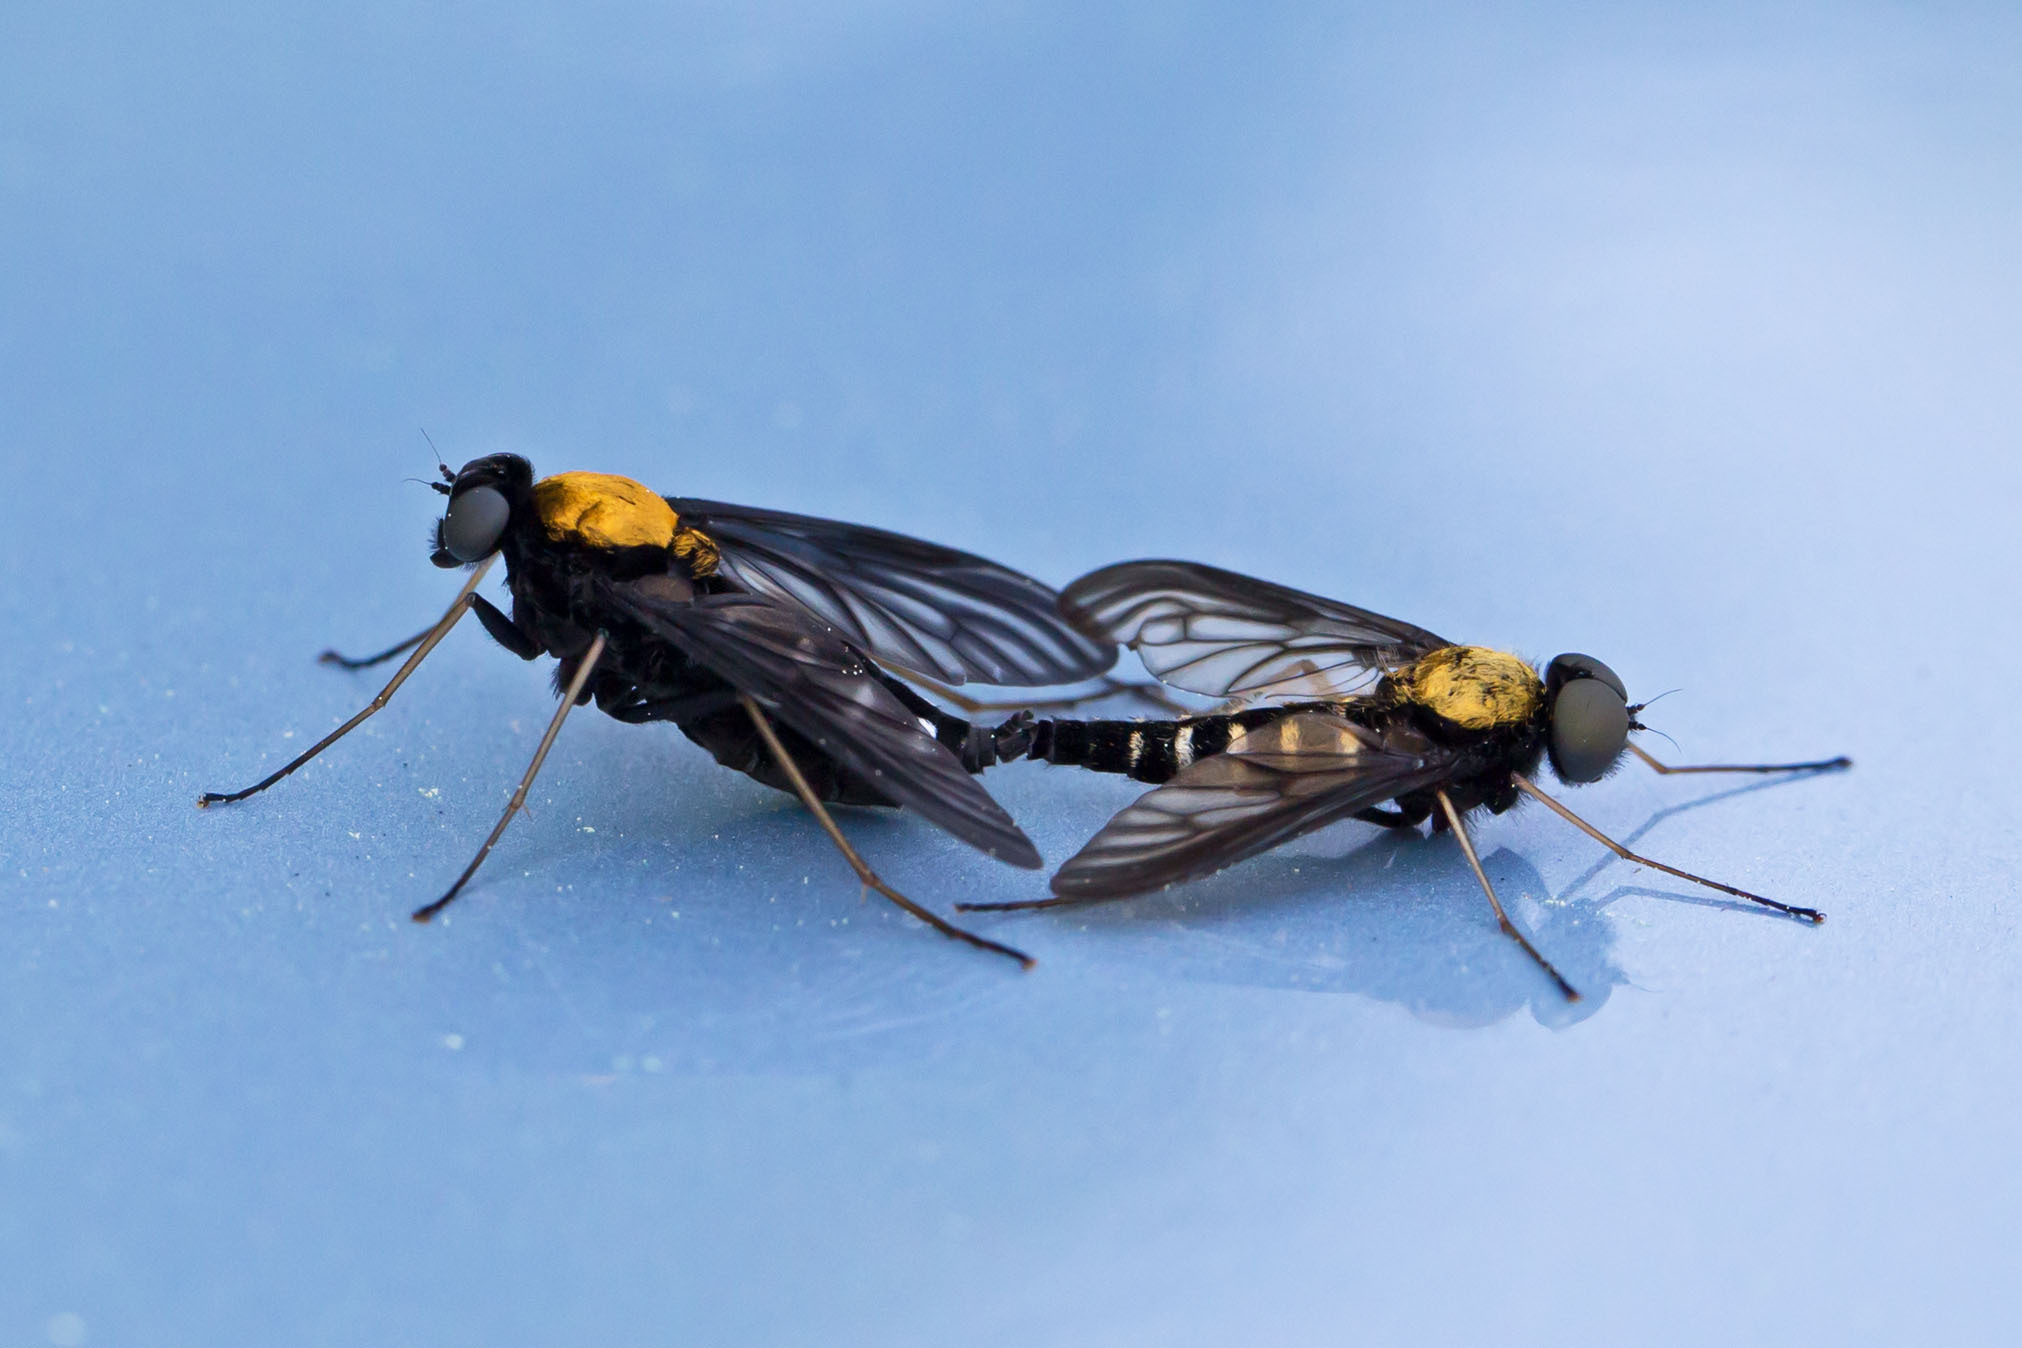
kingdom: Animalia
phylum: Arthropoda
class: Insecta
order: Diptera
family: Rhagionidae
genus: Chrysopilus
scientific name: Chrysopilus thoracicus
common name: Golden-backed snipe fly
